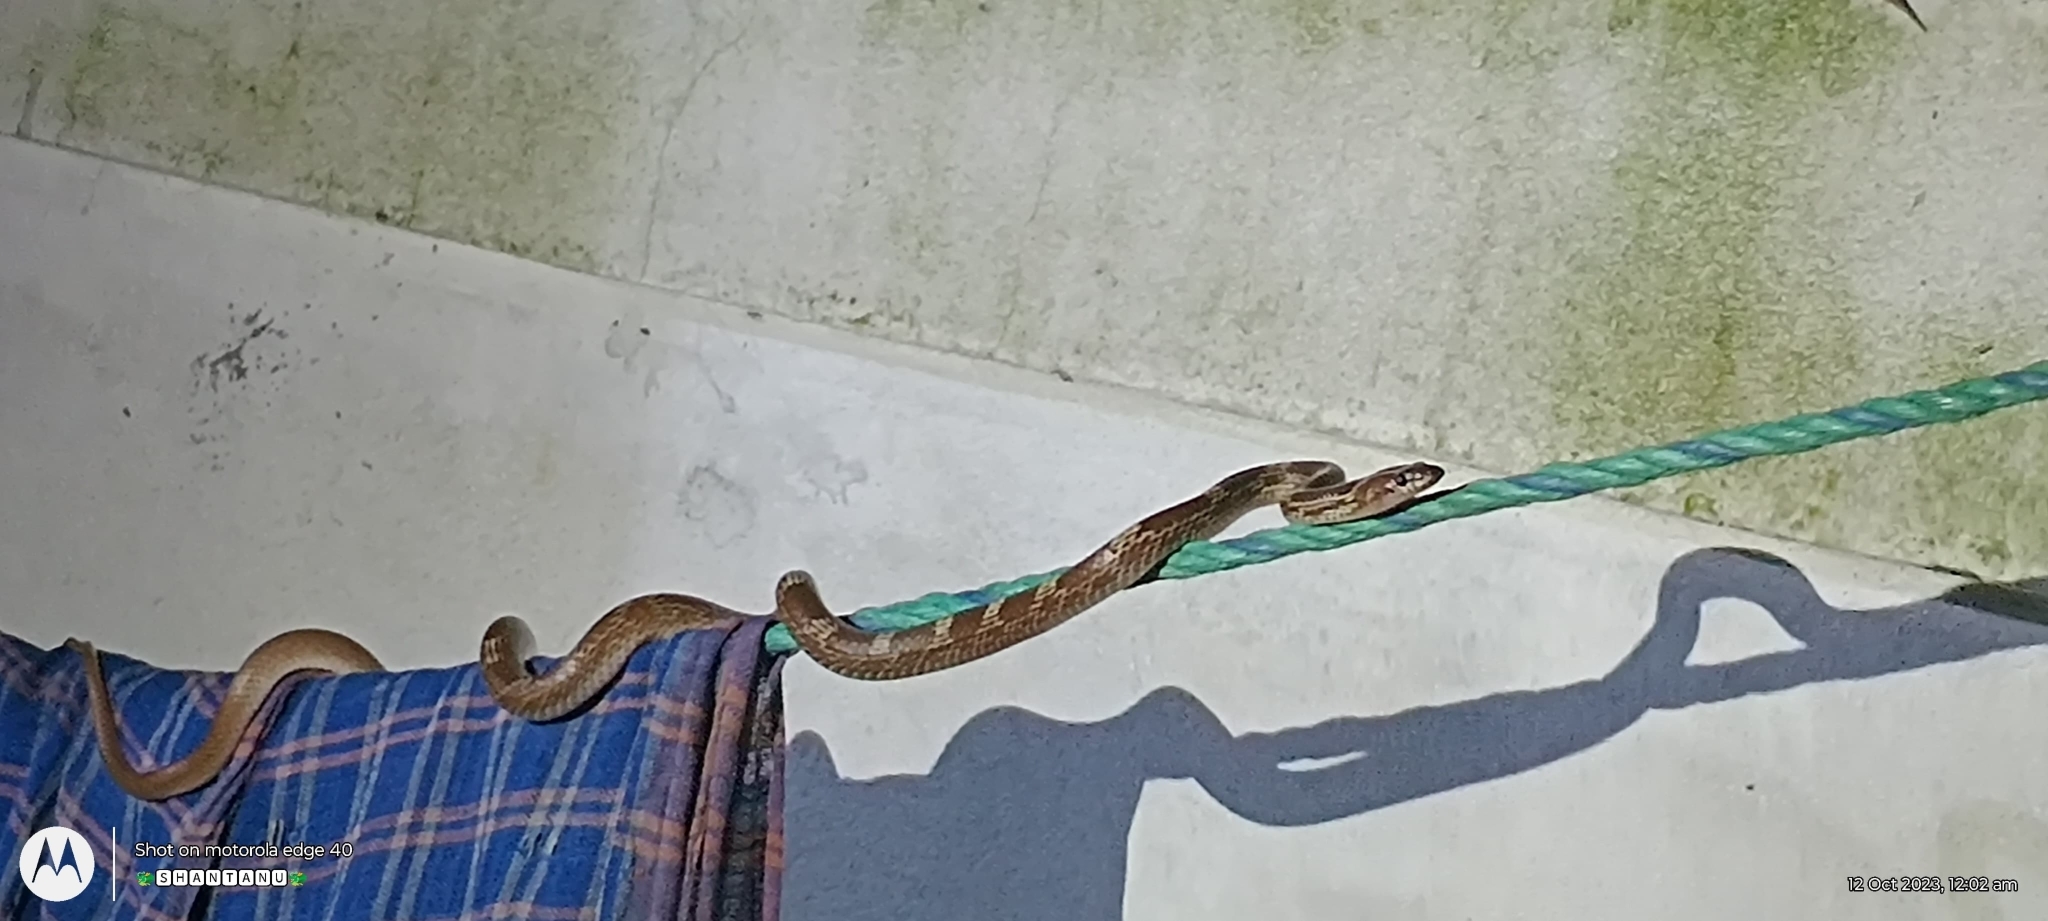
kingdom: Animalia
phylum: Chordata
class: Squamata
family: Colubridae
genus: Lycodon
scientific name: Lycodon aulicus
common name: Common wolf snake
